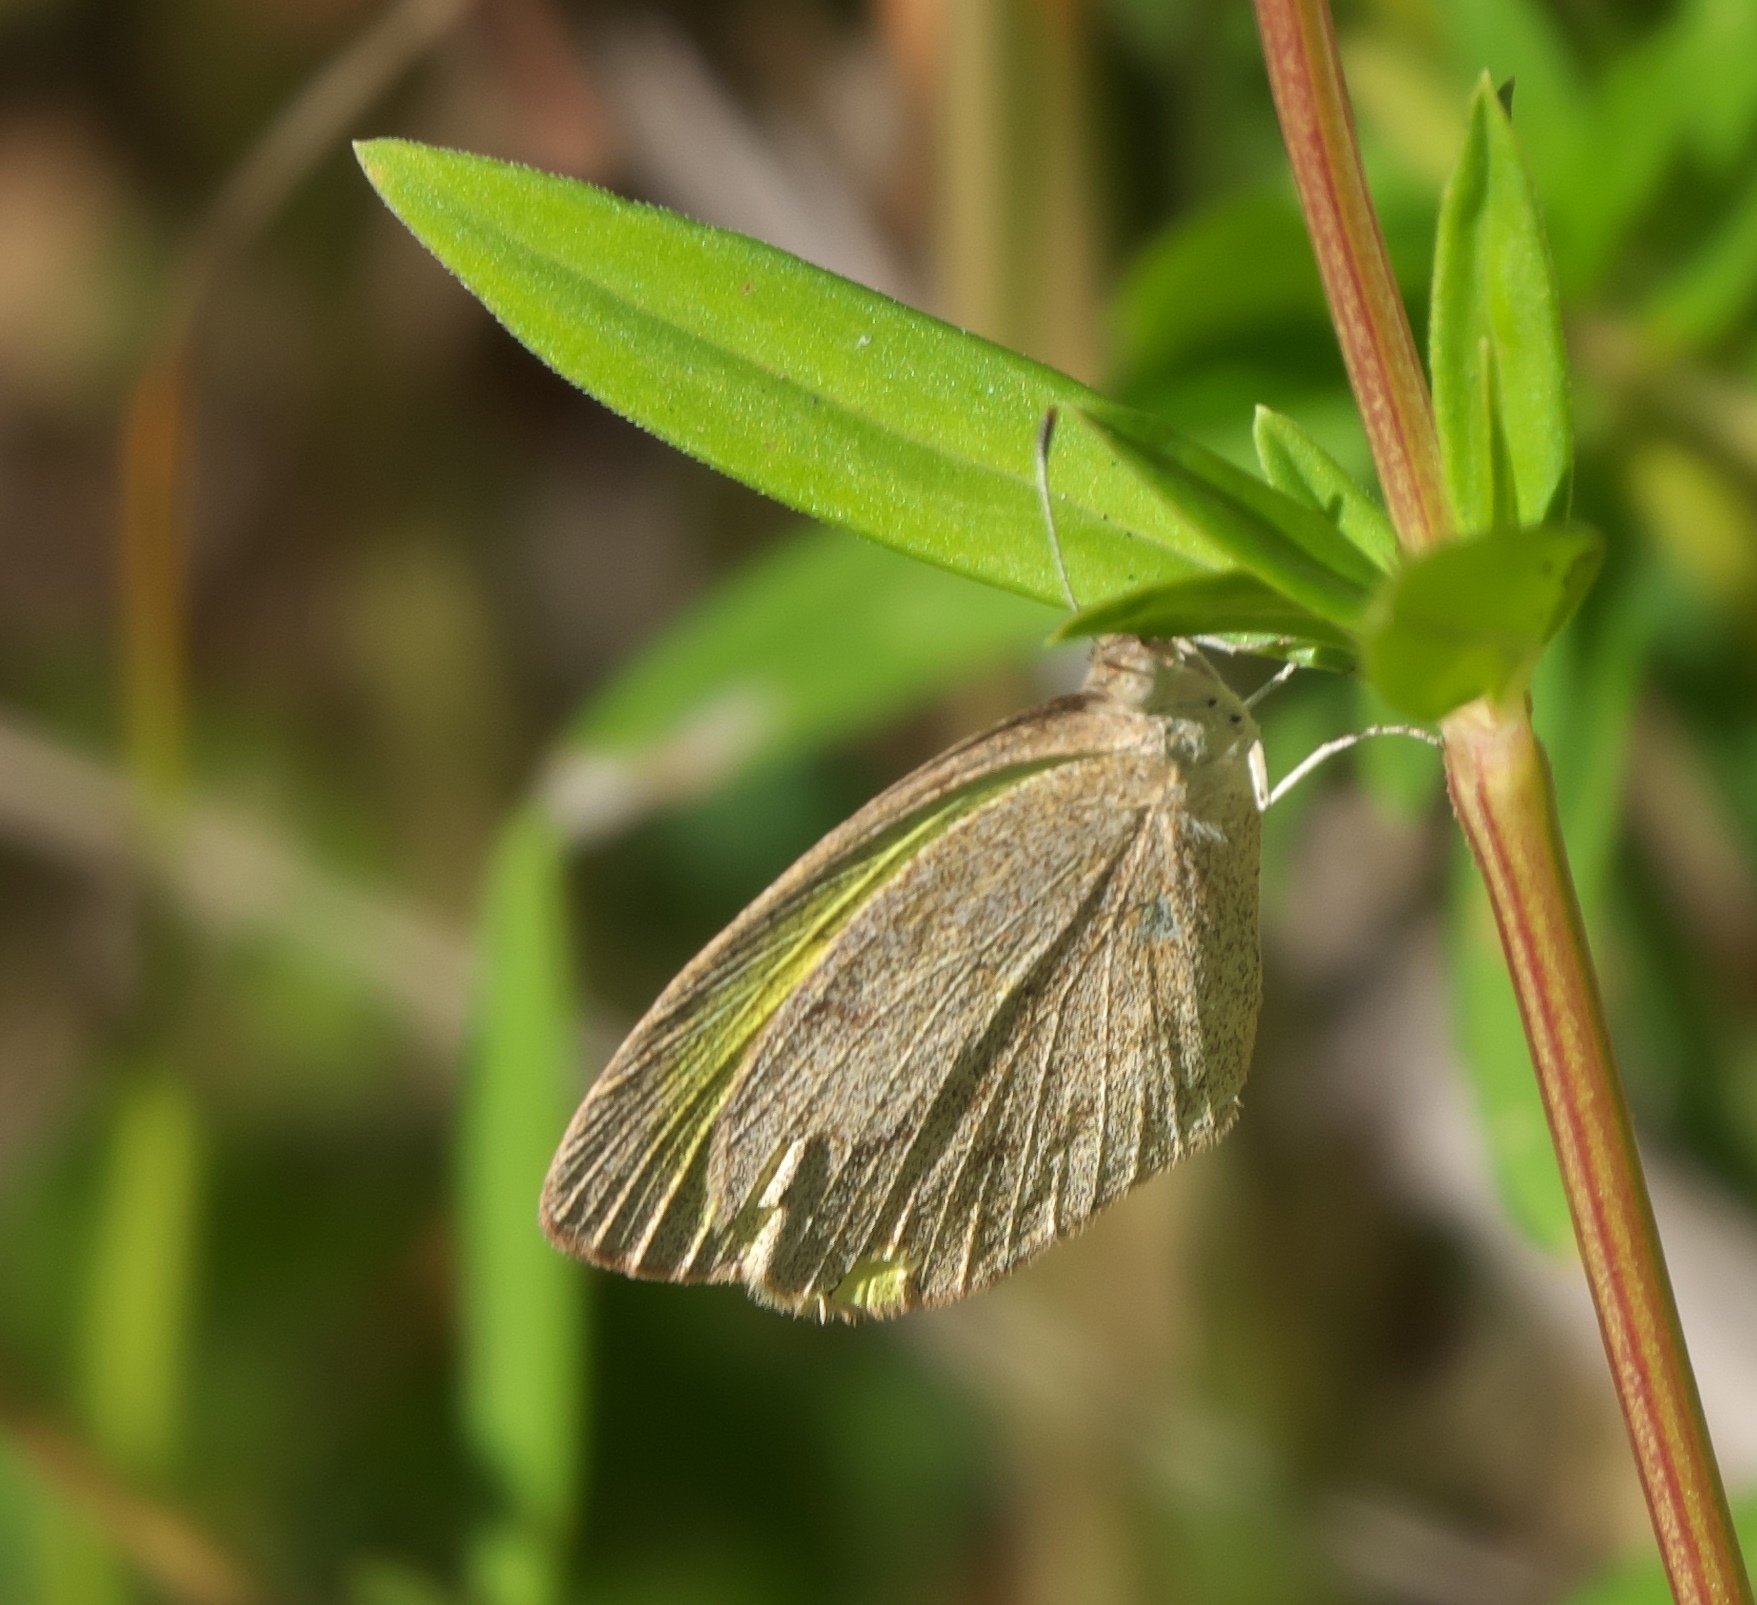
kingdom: Animalia
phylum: Arthropoda
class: Insecta
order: Lepidoptera
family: Pieridae
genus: Eurema
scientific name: Eurema daira
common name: Barred sulphur
